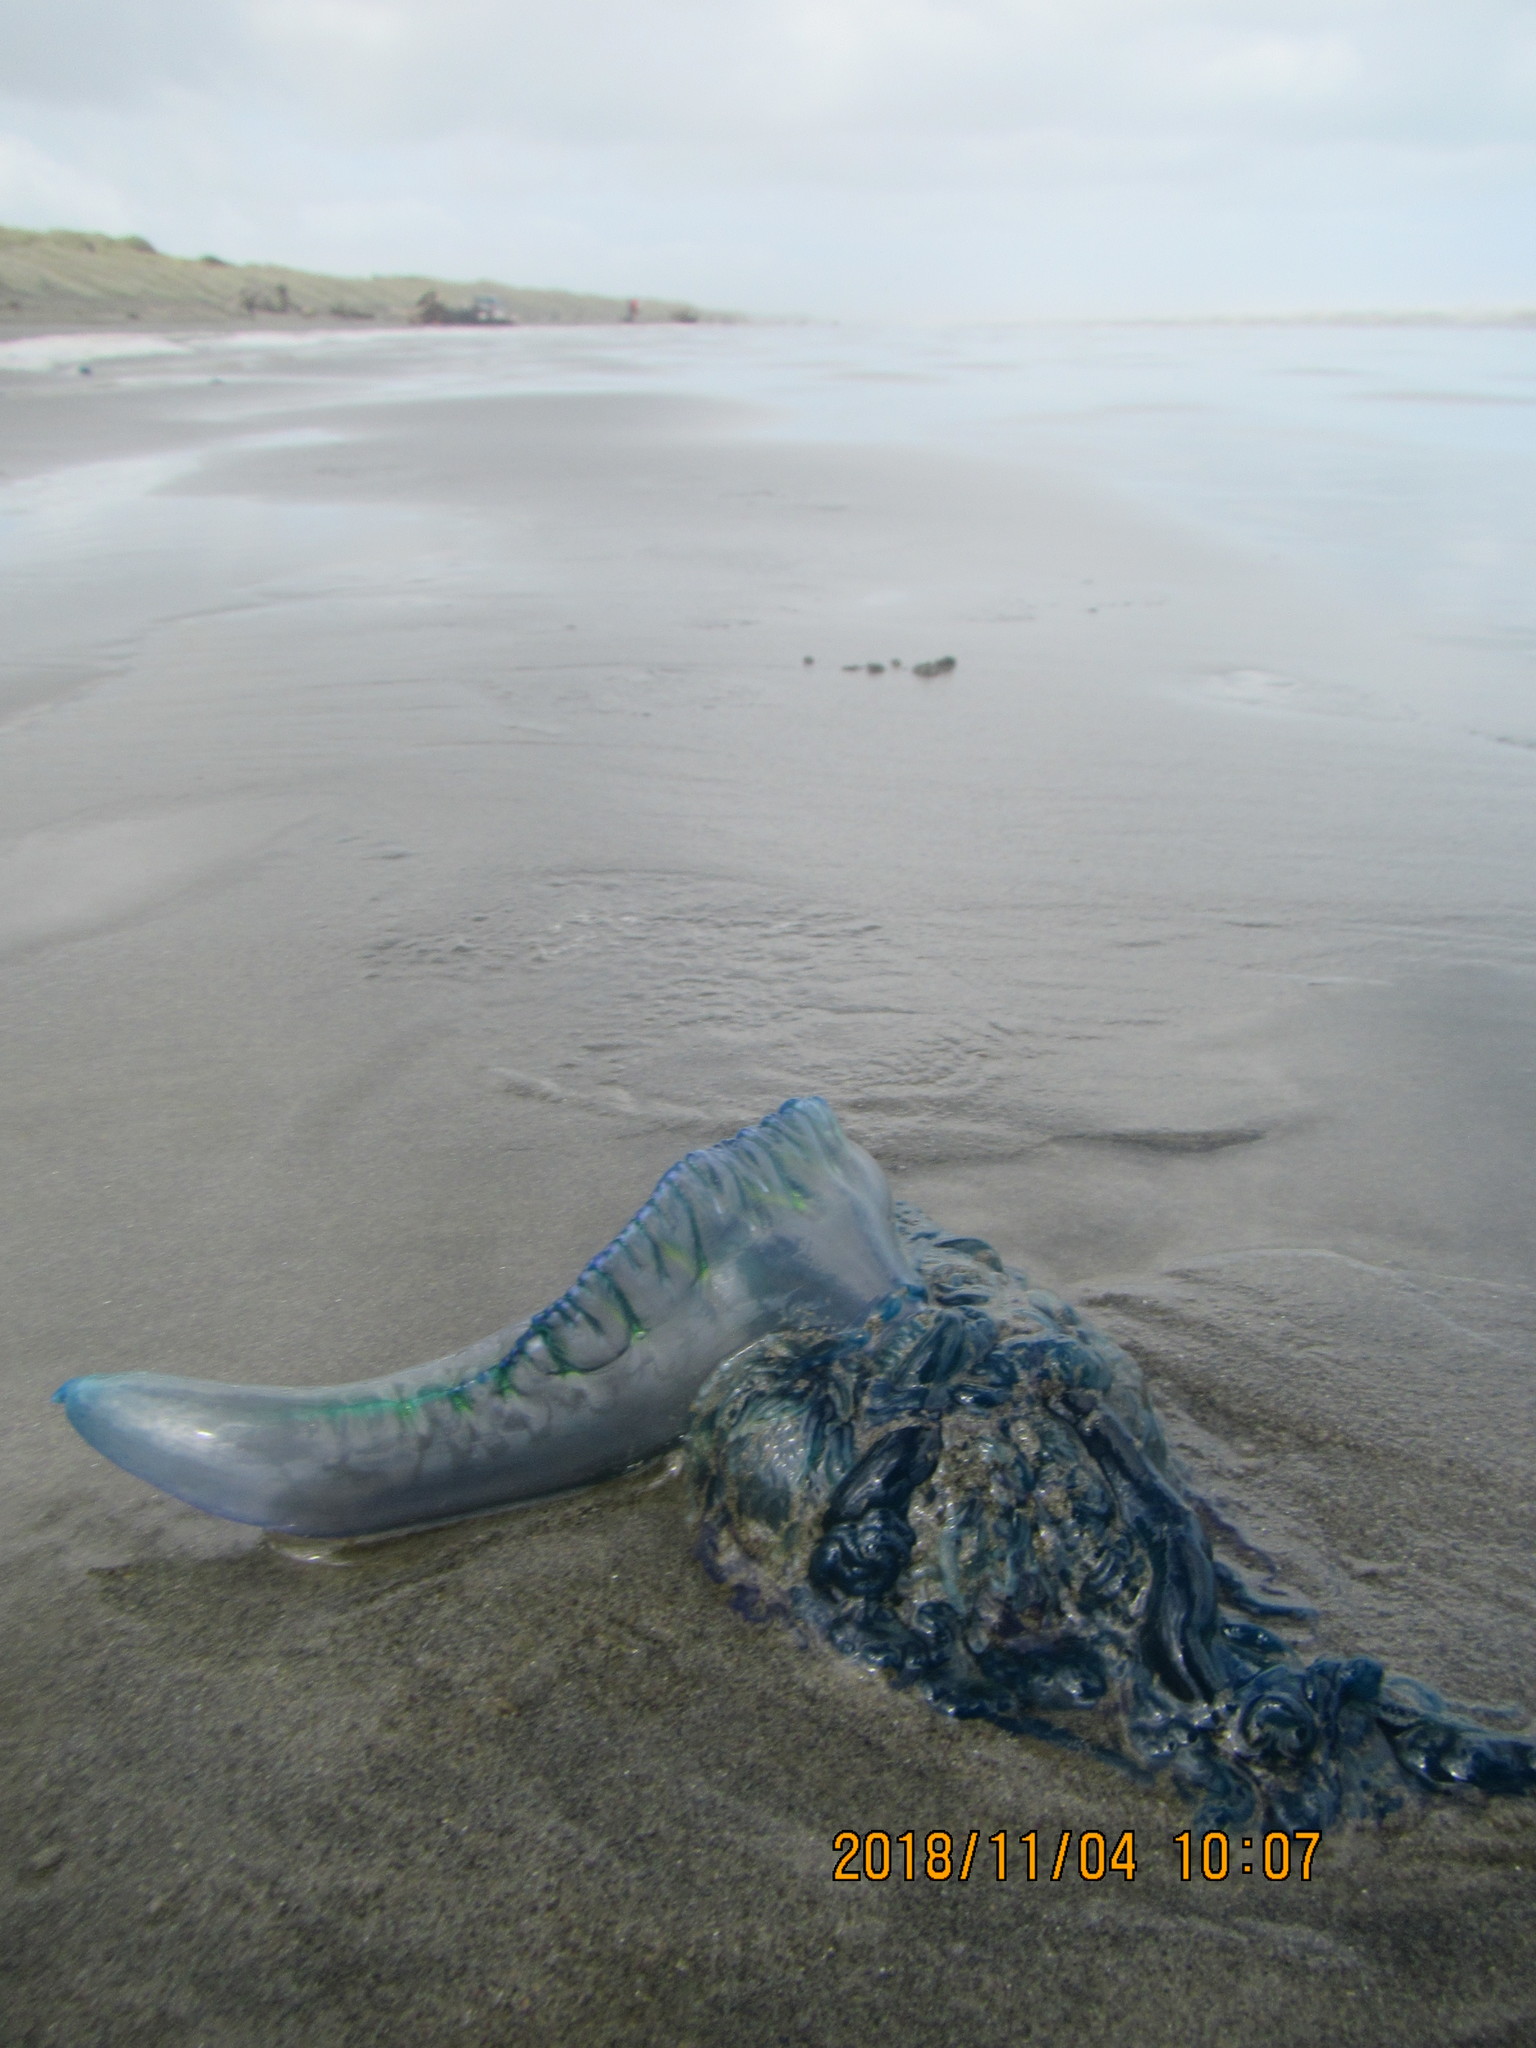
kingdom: Animalia
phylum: Cnidaria
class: Hydrozoa
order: Siphonophorae
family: Physaliidae
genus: Physalia
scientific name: Physalia physalis
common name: Portuguese man-of-war
